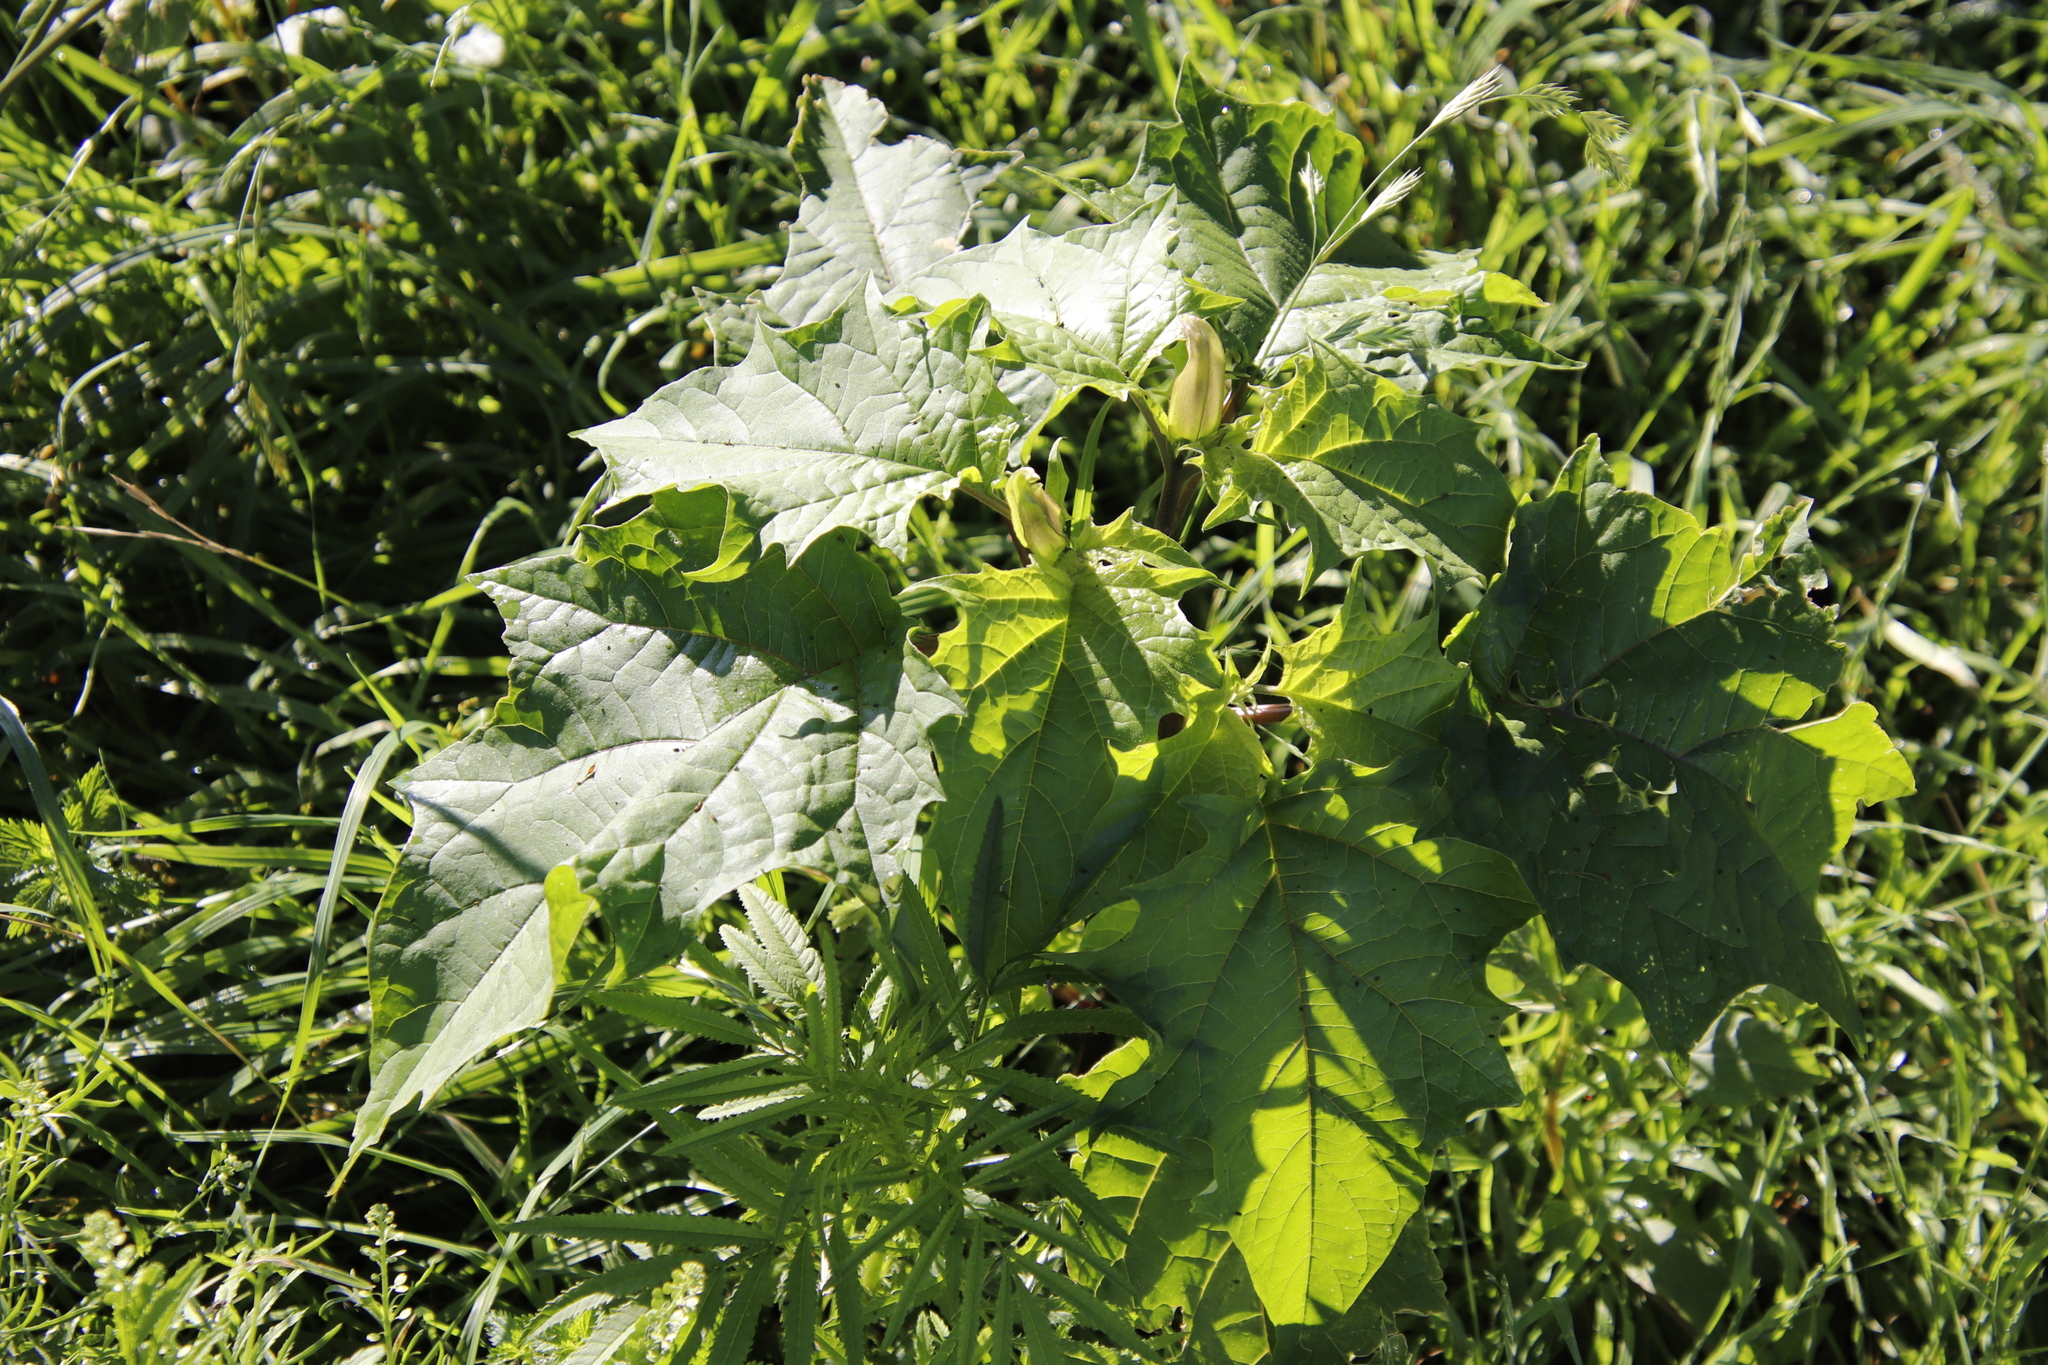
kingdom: Plantae
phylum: Tracheophyta
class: Magnoliopsida
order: Solanales
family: Solanaceae
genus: Datura
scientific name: Datura stramonium
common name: Thorn-apple
